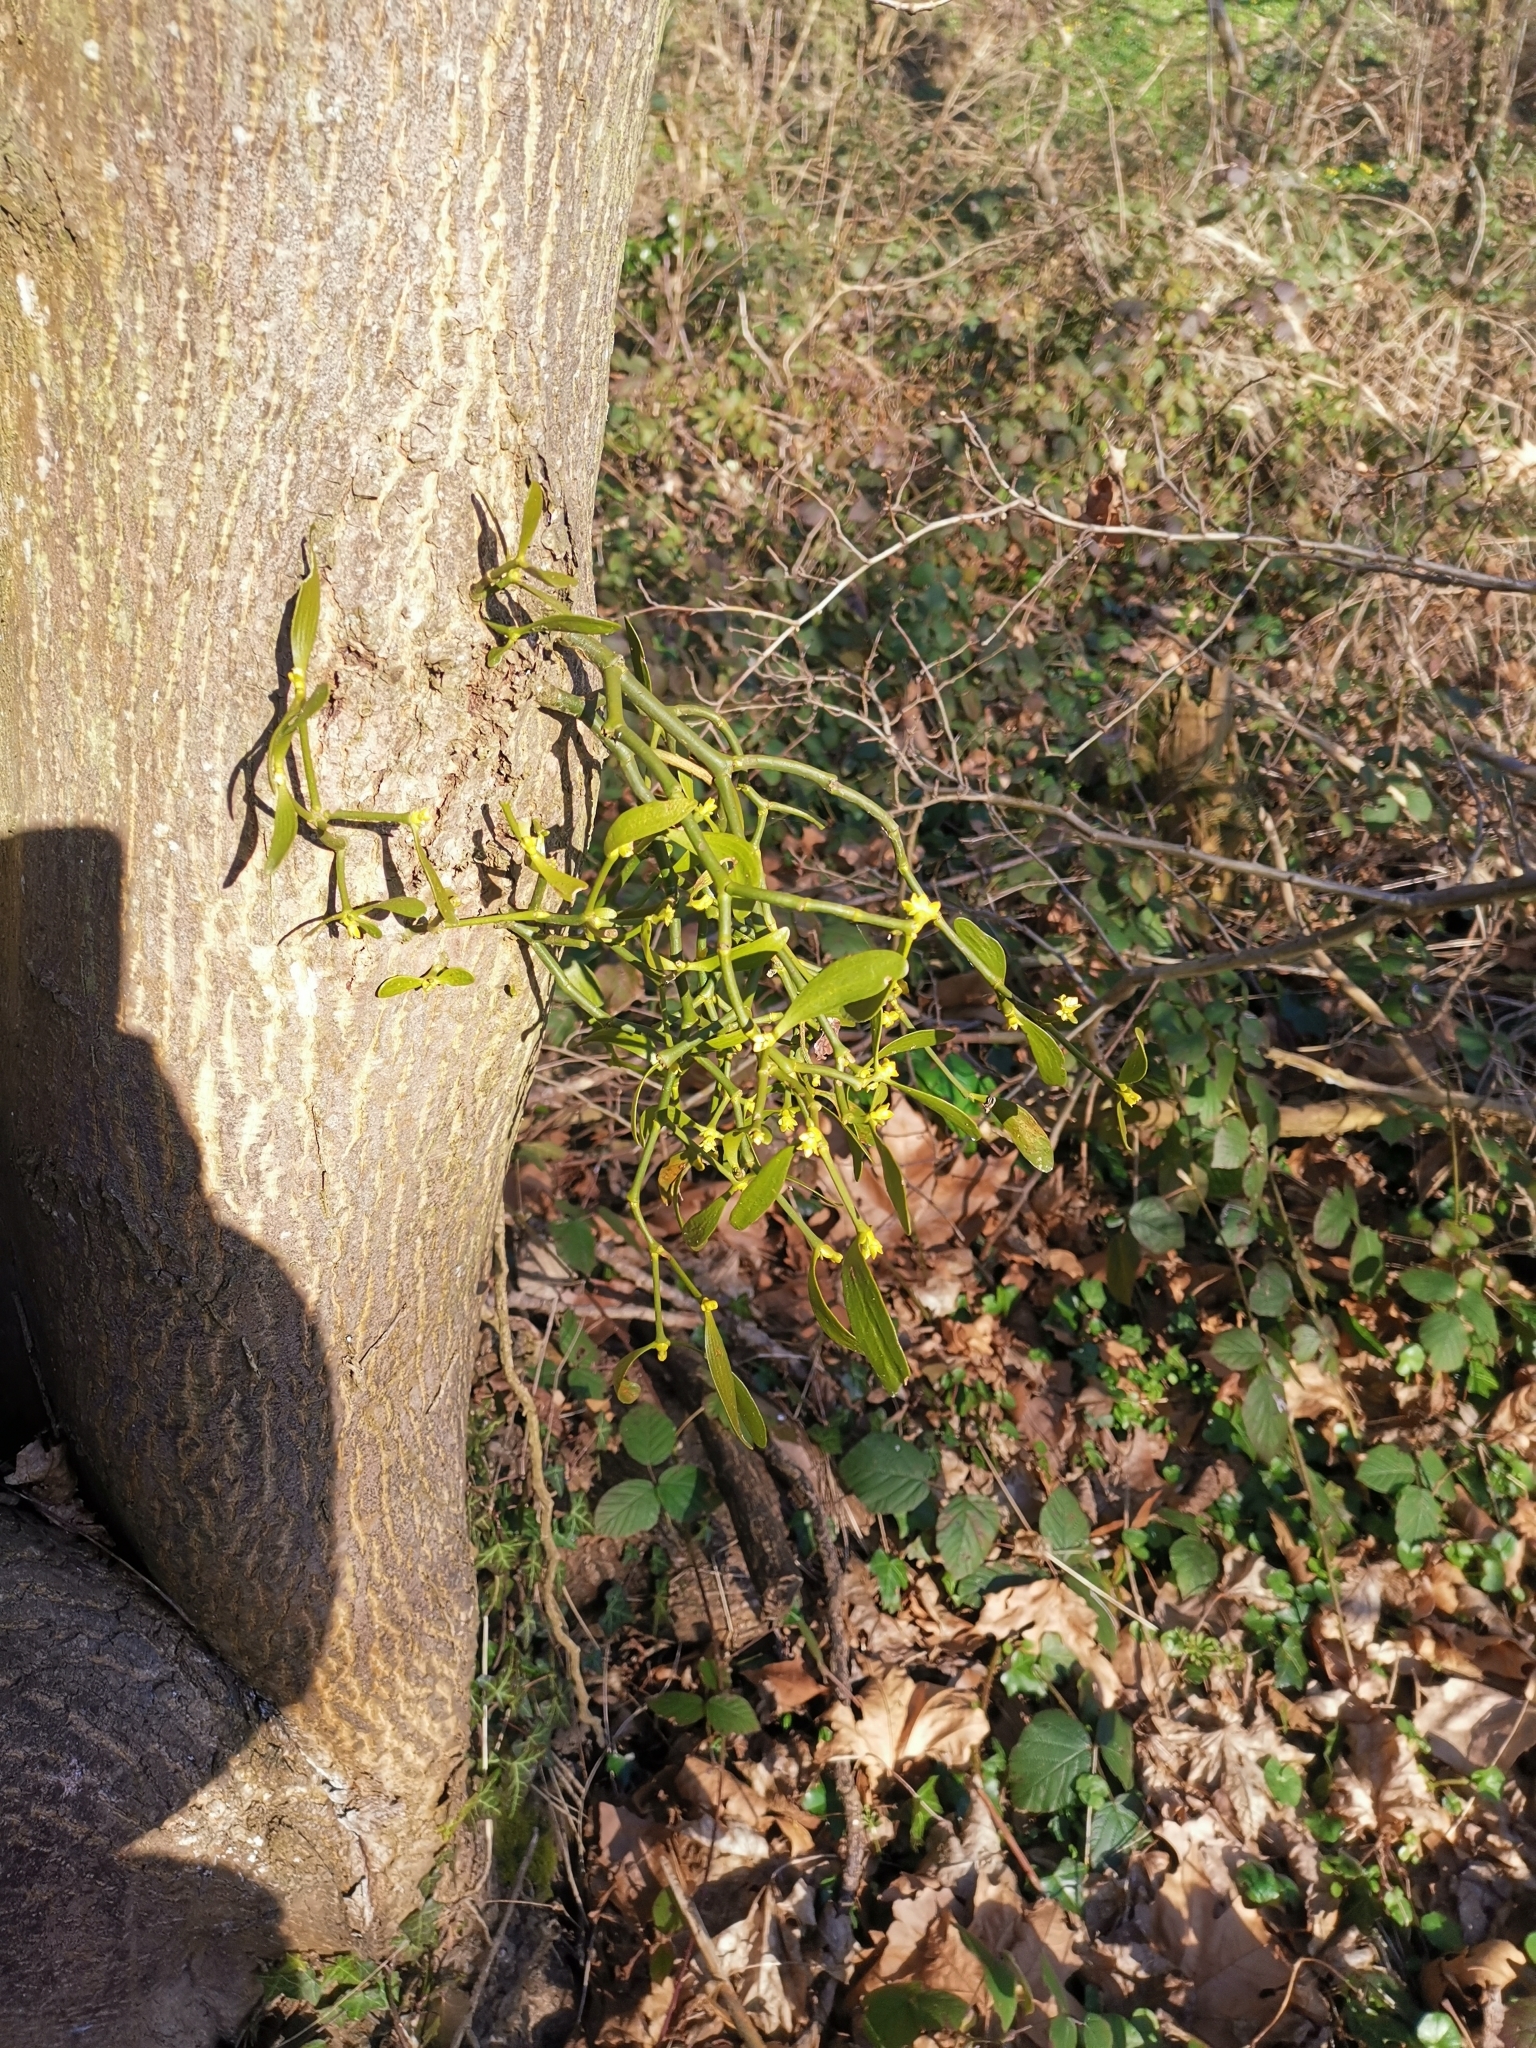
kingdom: Plantae
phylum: Tracheophyta
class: Magnoliopsida
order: Santalales
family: Viscaceae
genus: Viscum
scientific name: Viscum album
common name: Mistletoe
